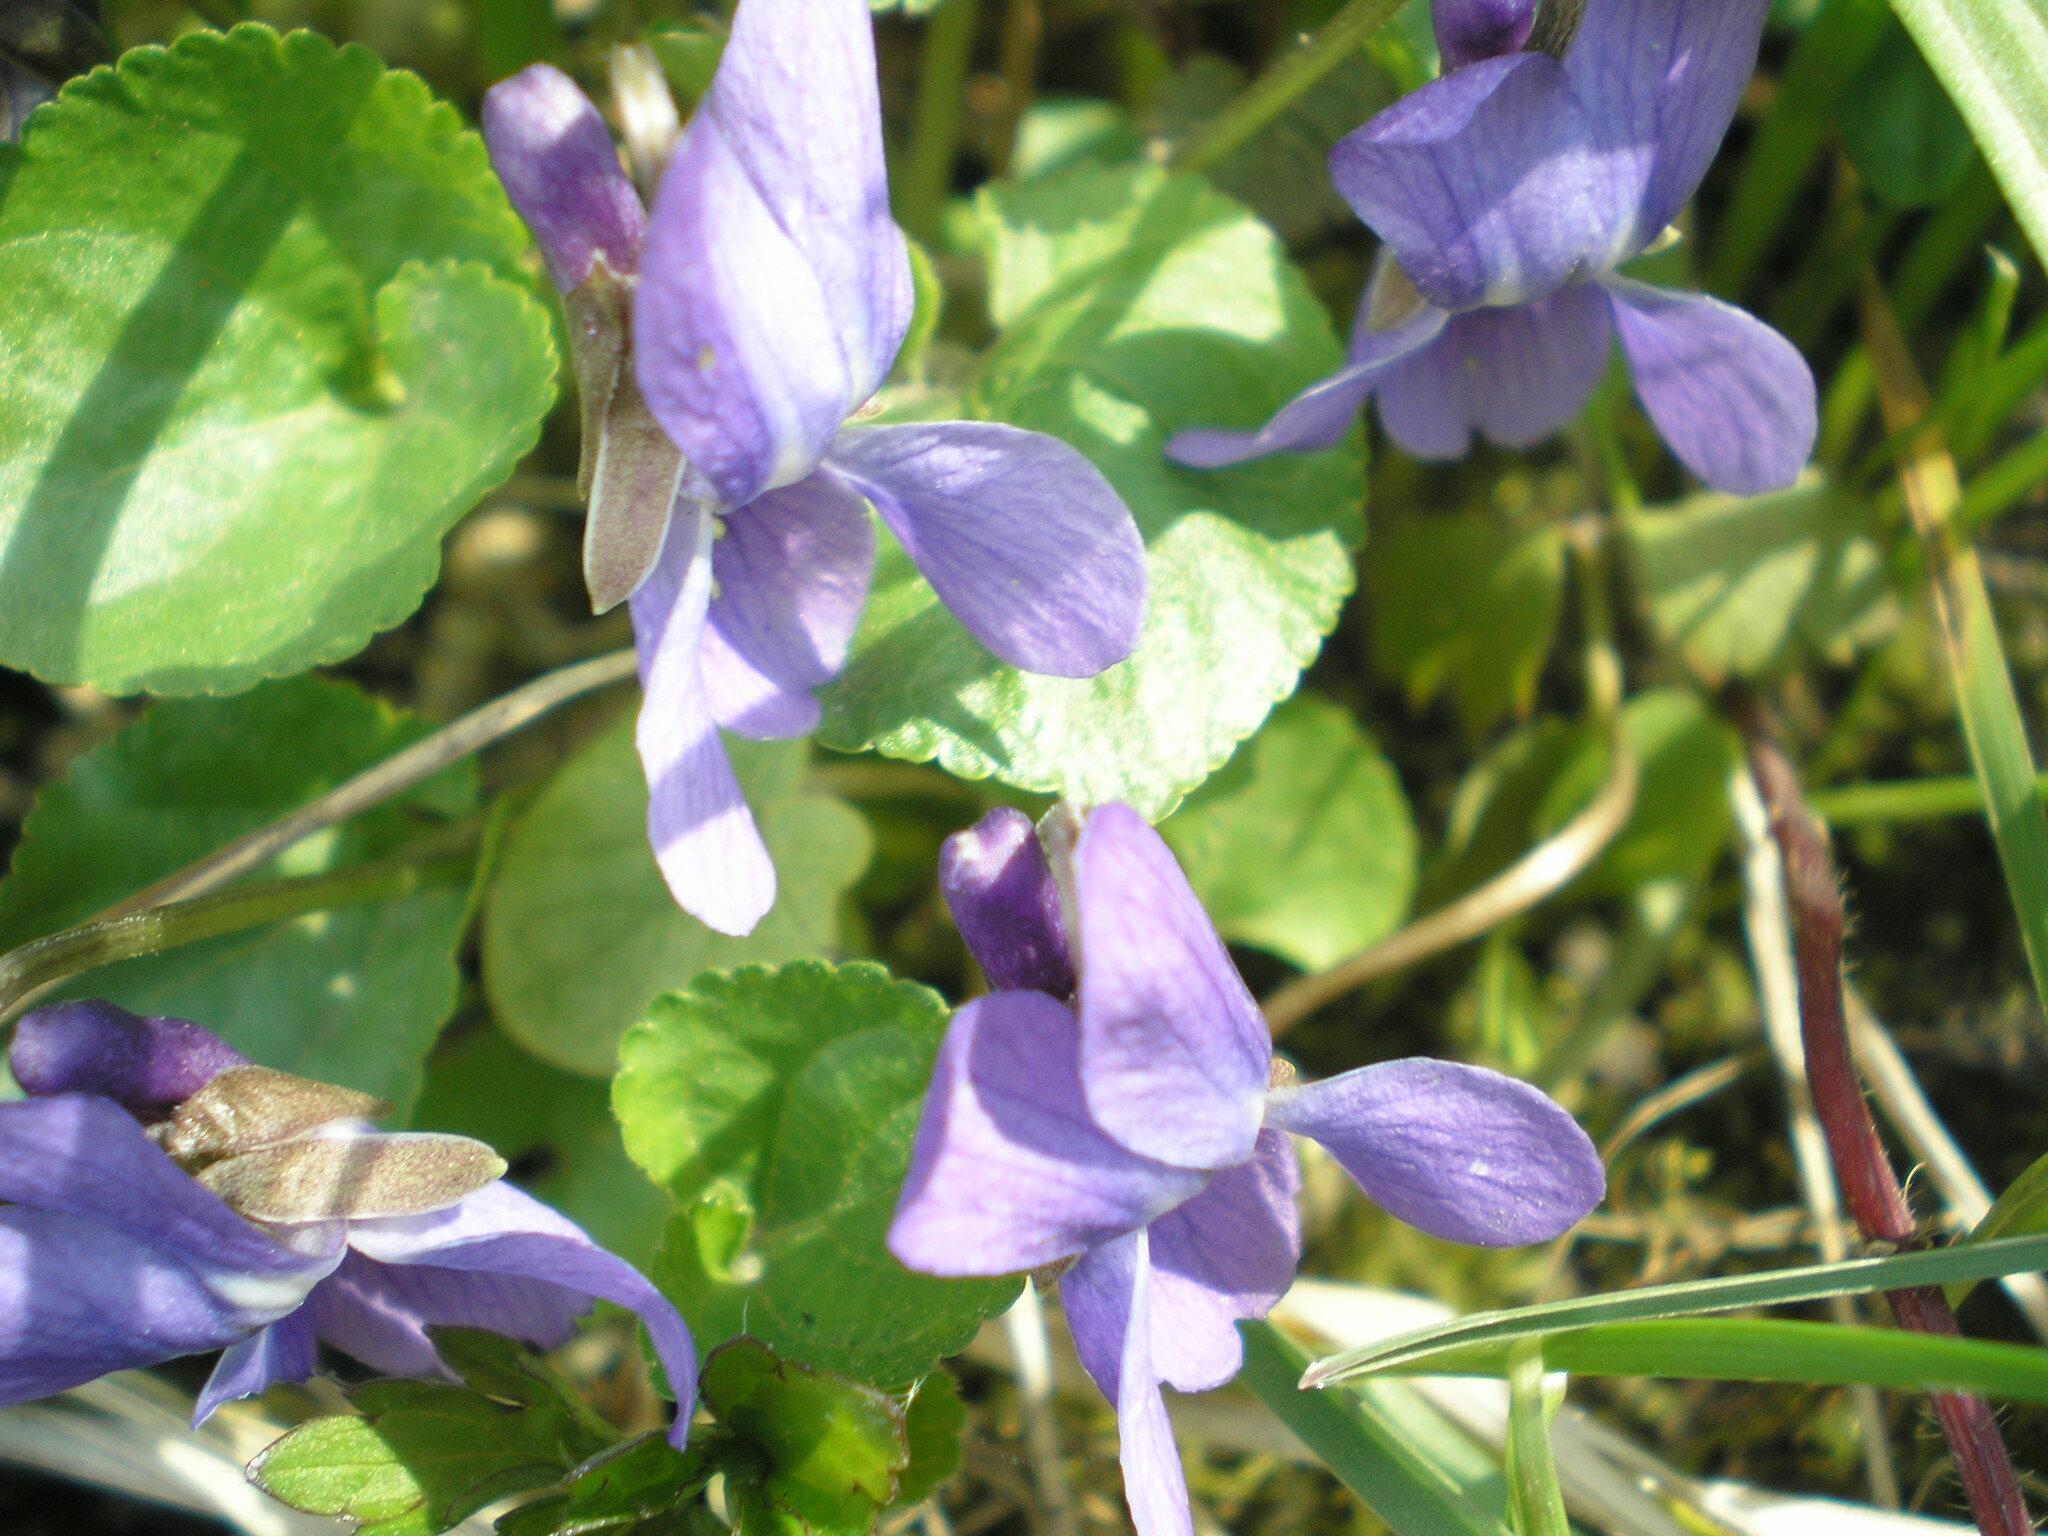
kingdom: Plantae
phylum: Tracheophyta
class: Magnoliopsida
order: Malpighiales
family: Violaceae
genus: Viola
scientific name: Viola odorata
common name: Sweet violet
